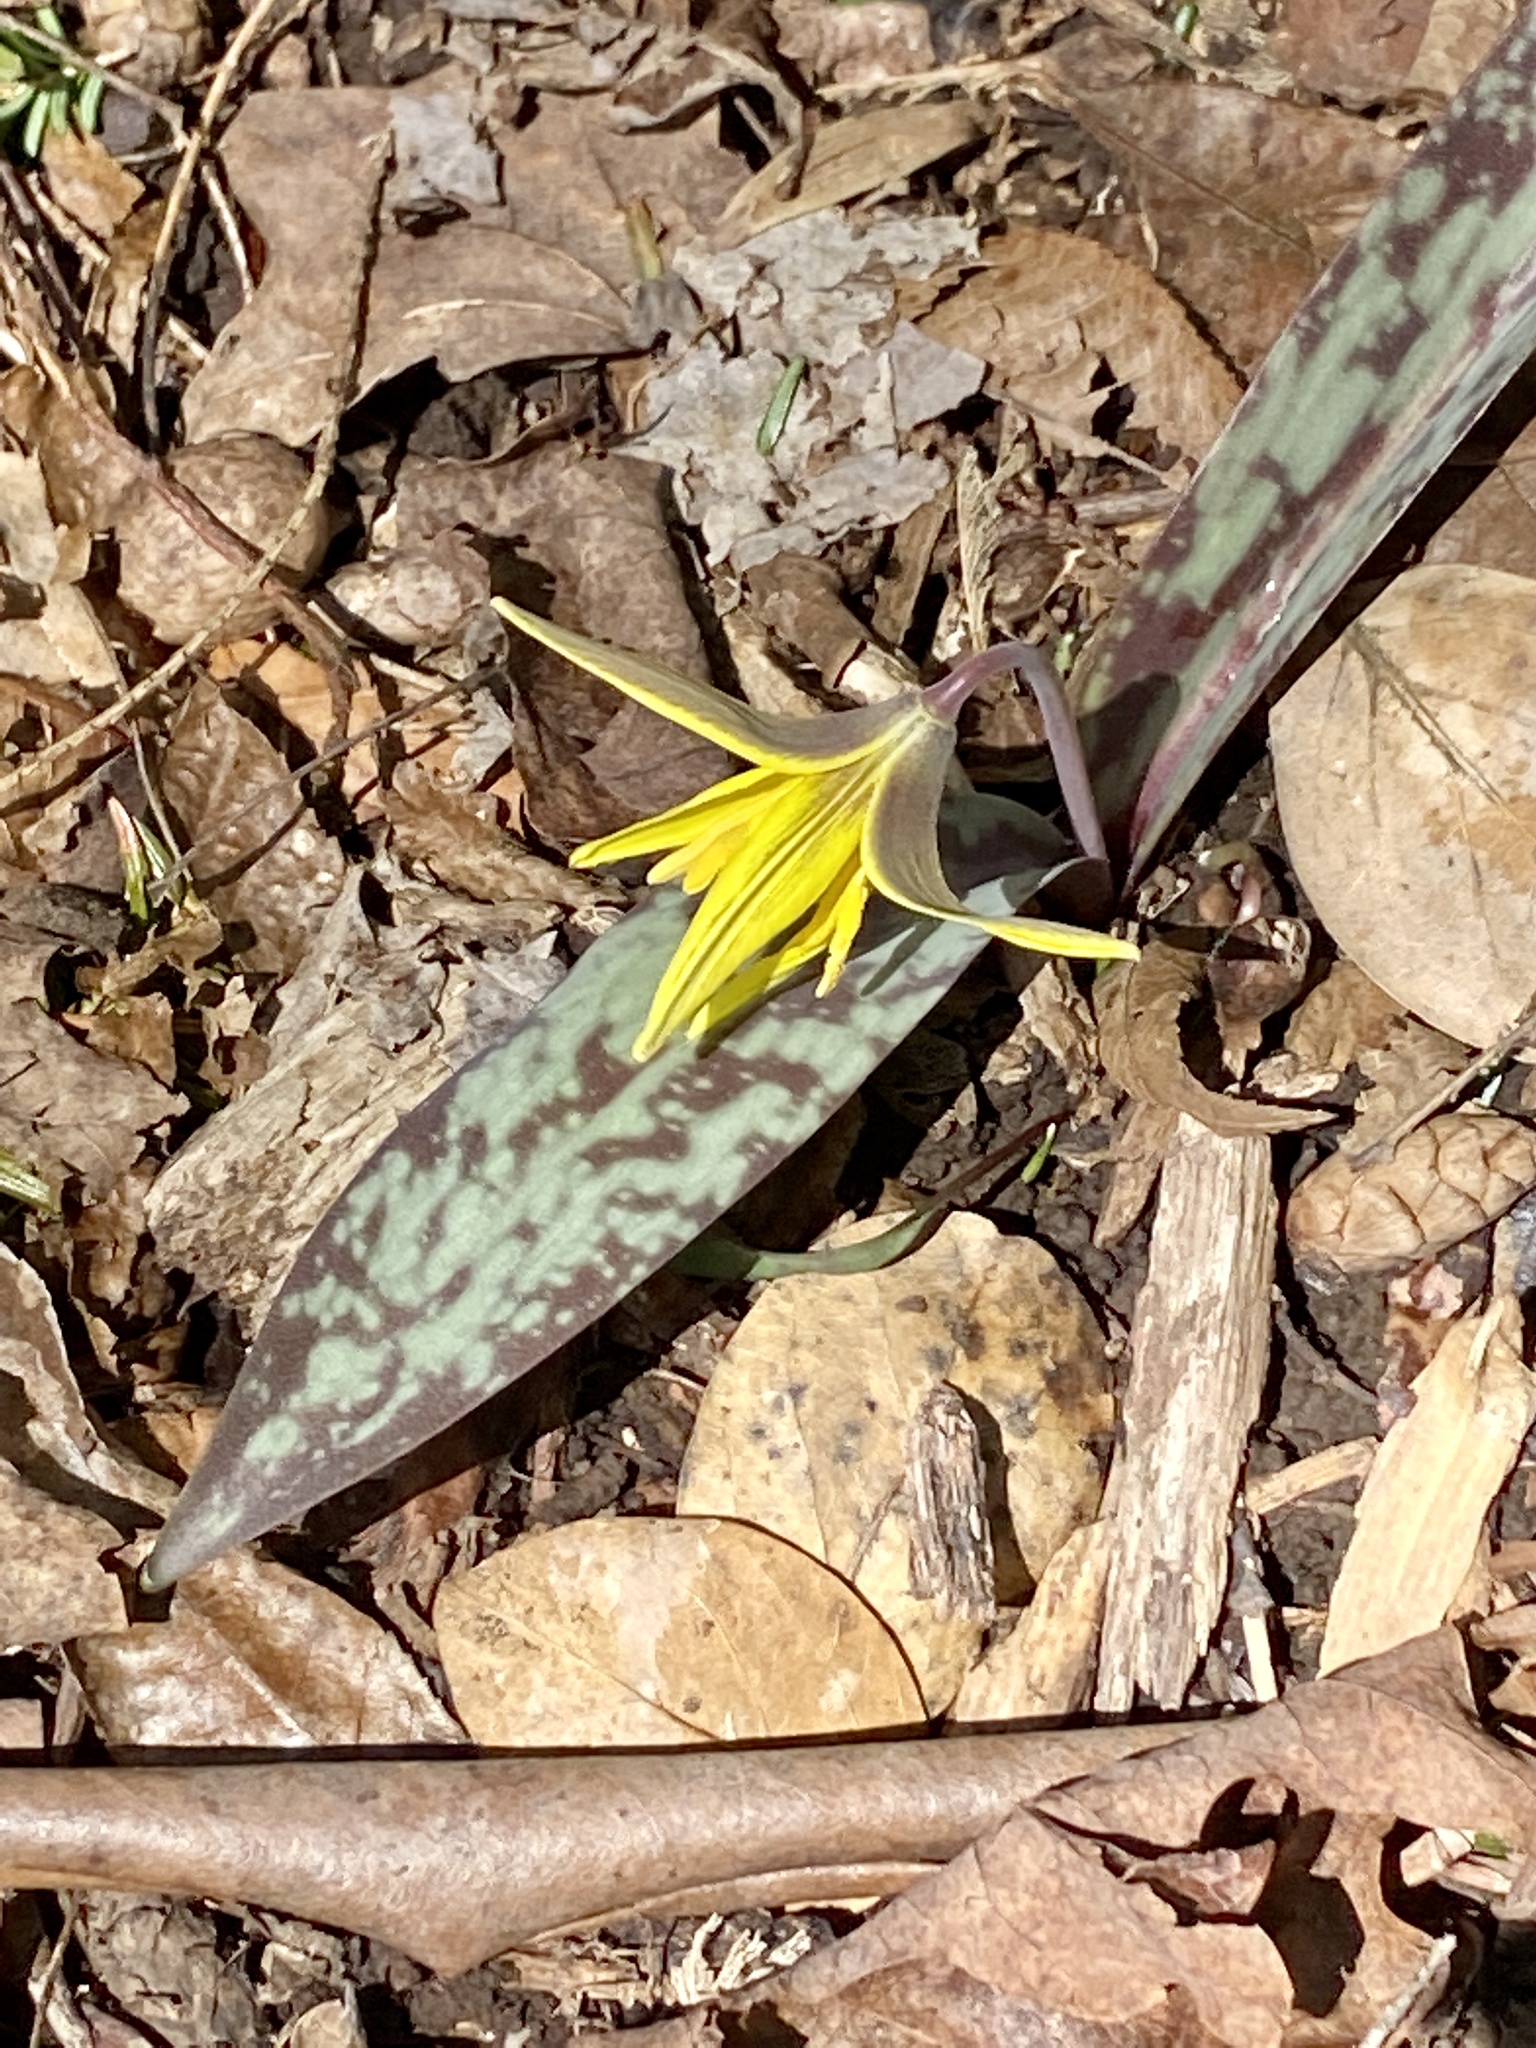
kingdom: Plantae
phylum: Tracheophyta
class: Liliopsida
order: Liliales
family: Liliaceae
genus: Erythronium
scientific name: Erythronium americanum
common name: Yellow adder's-tongue
